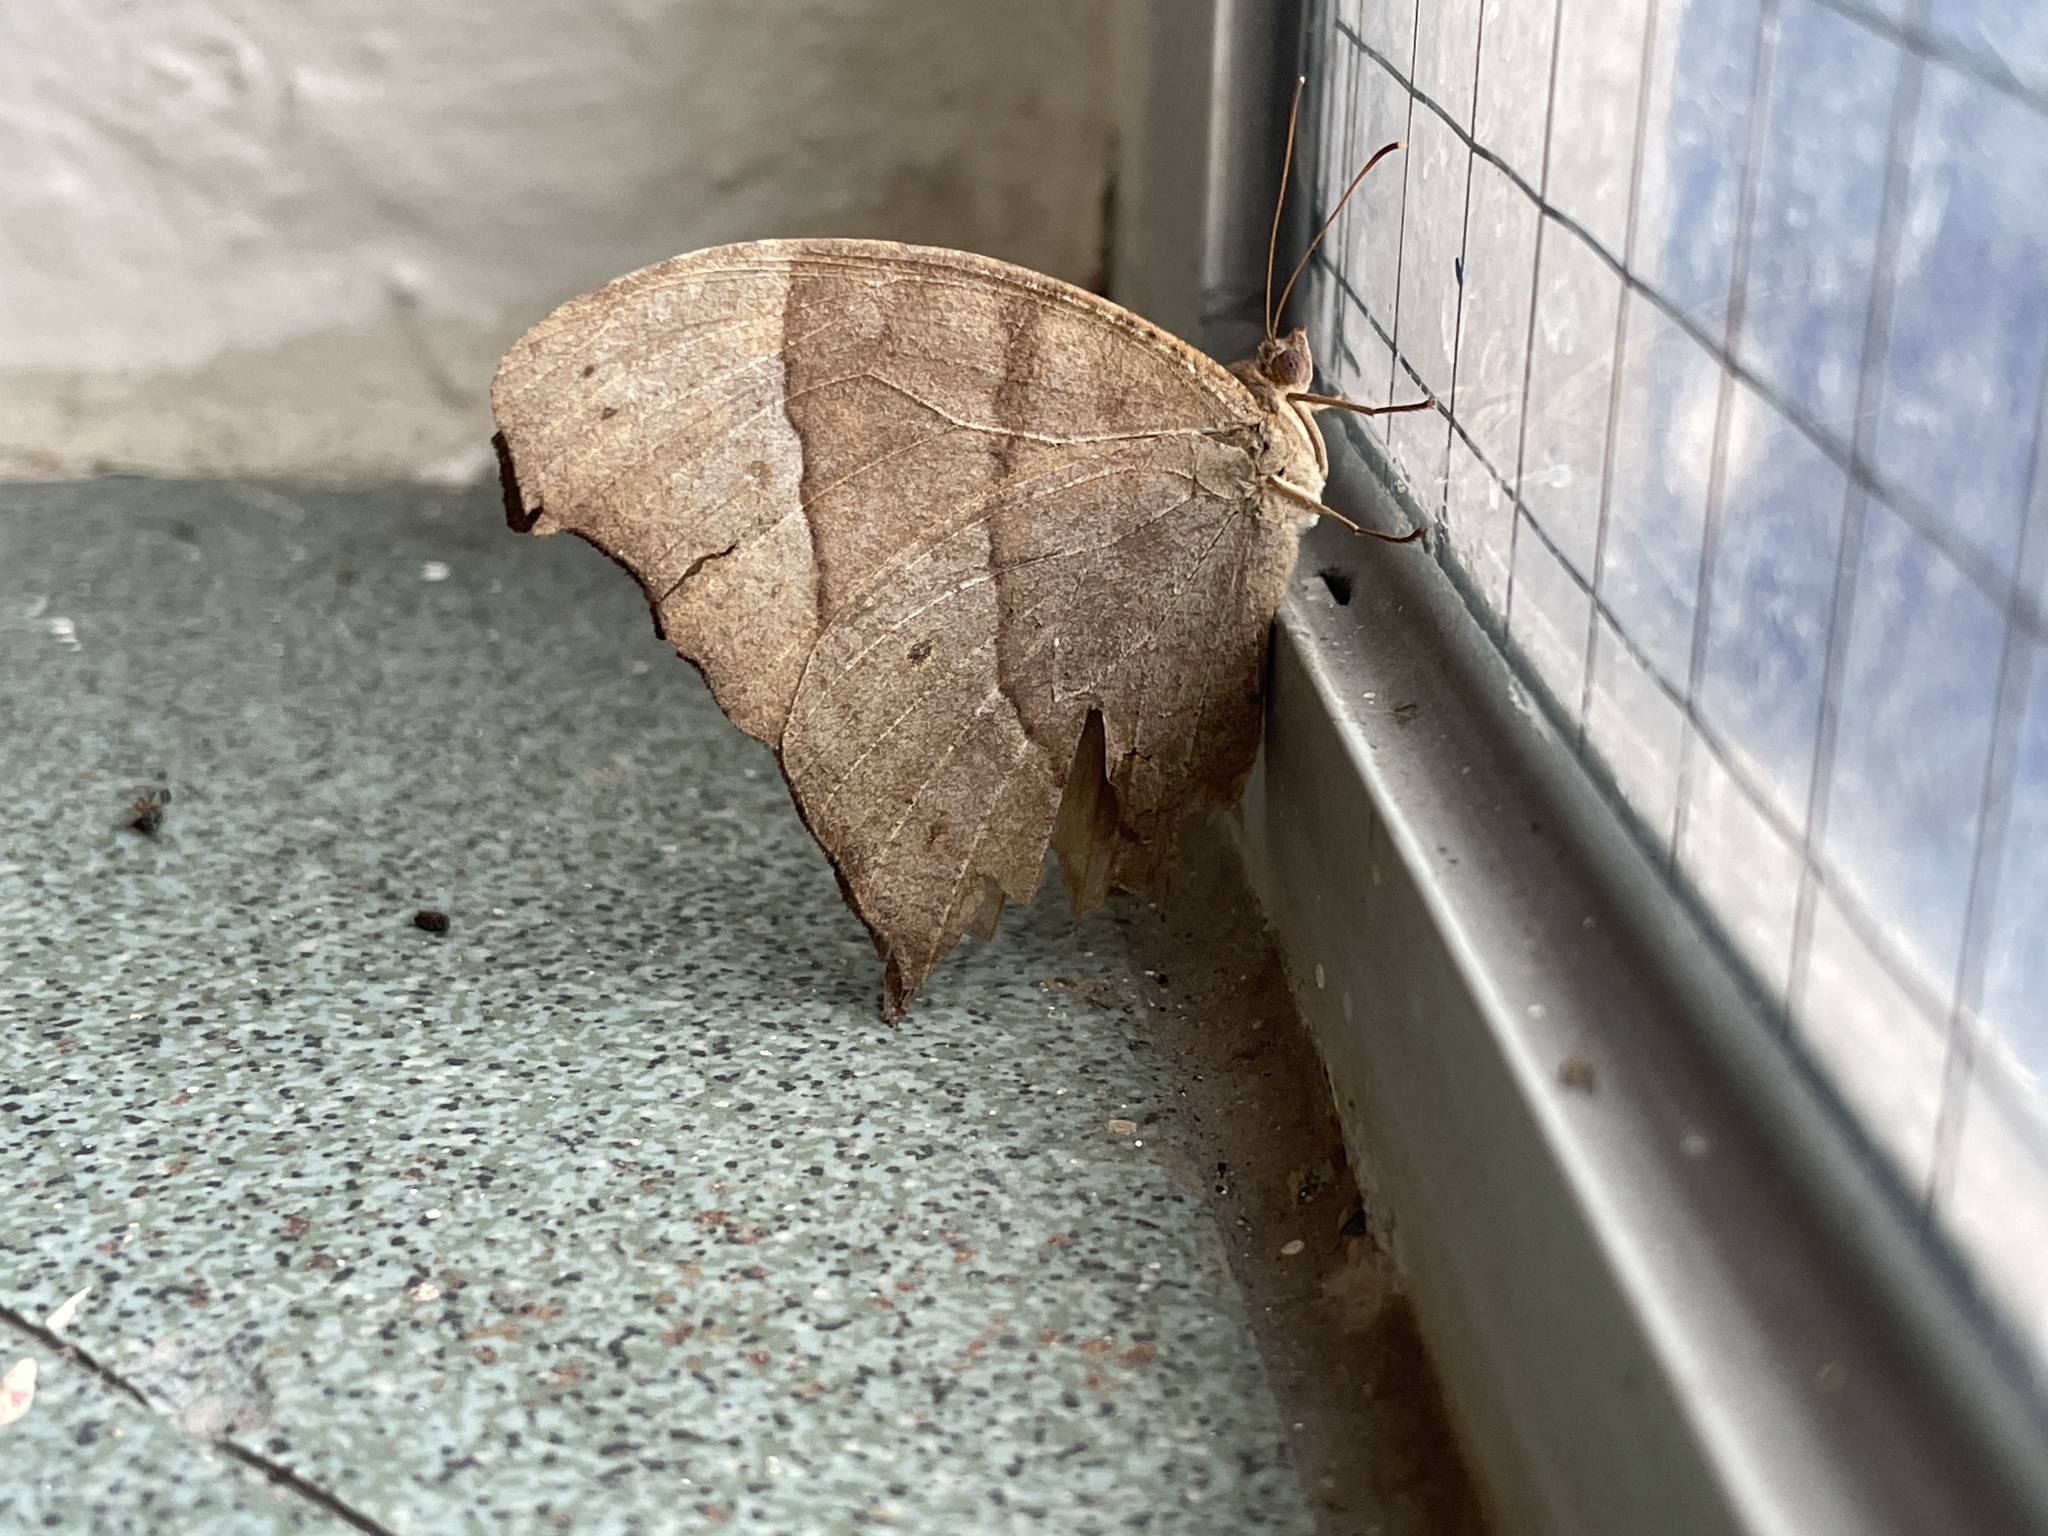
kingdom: Animalia
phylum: Arthropoda
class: Insecta
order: Lepidoptera
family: Nymphalidae
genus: Melanitis
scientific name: Melanitis phedima
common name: Dark evening brown
